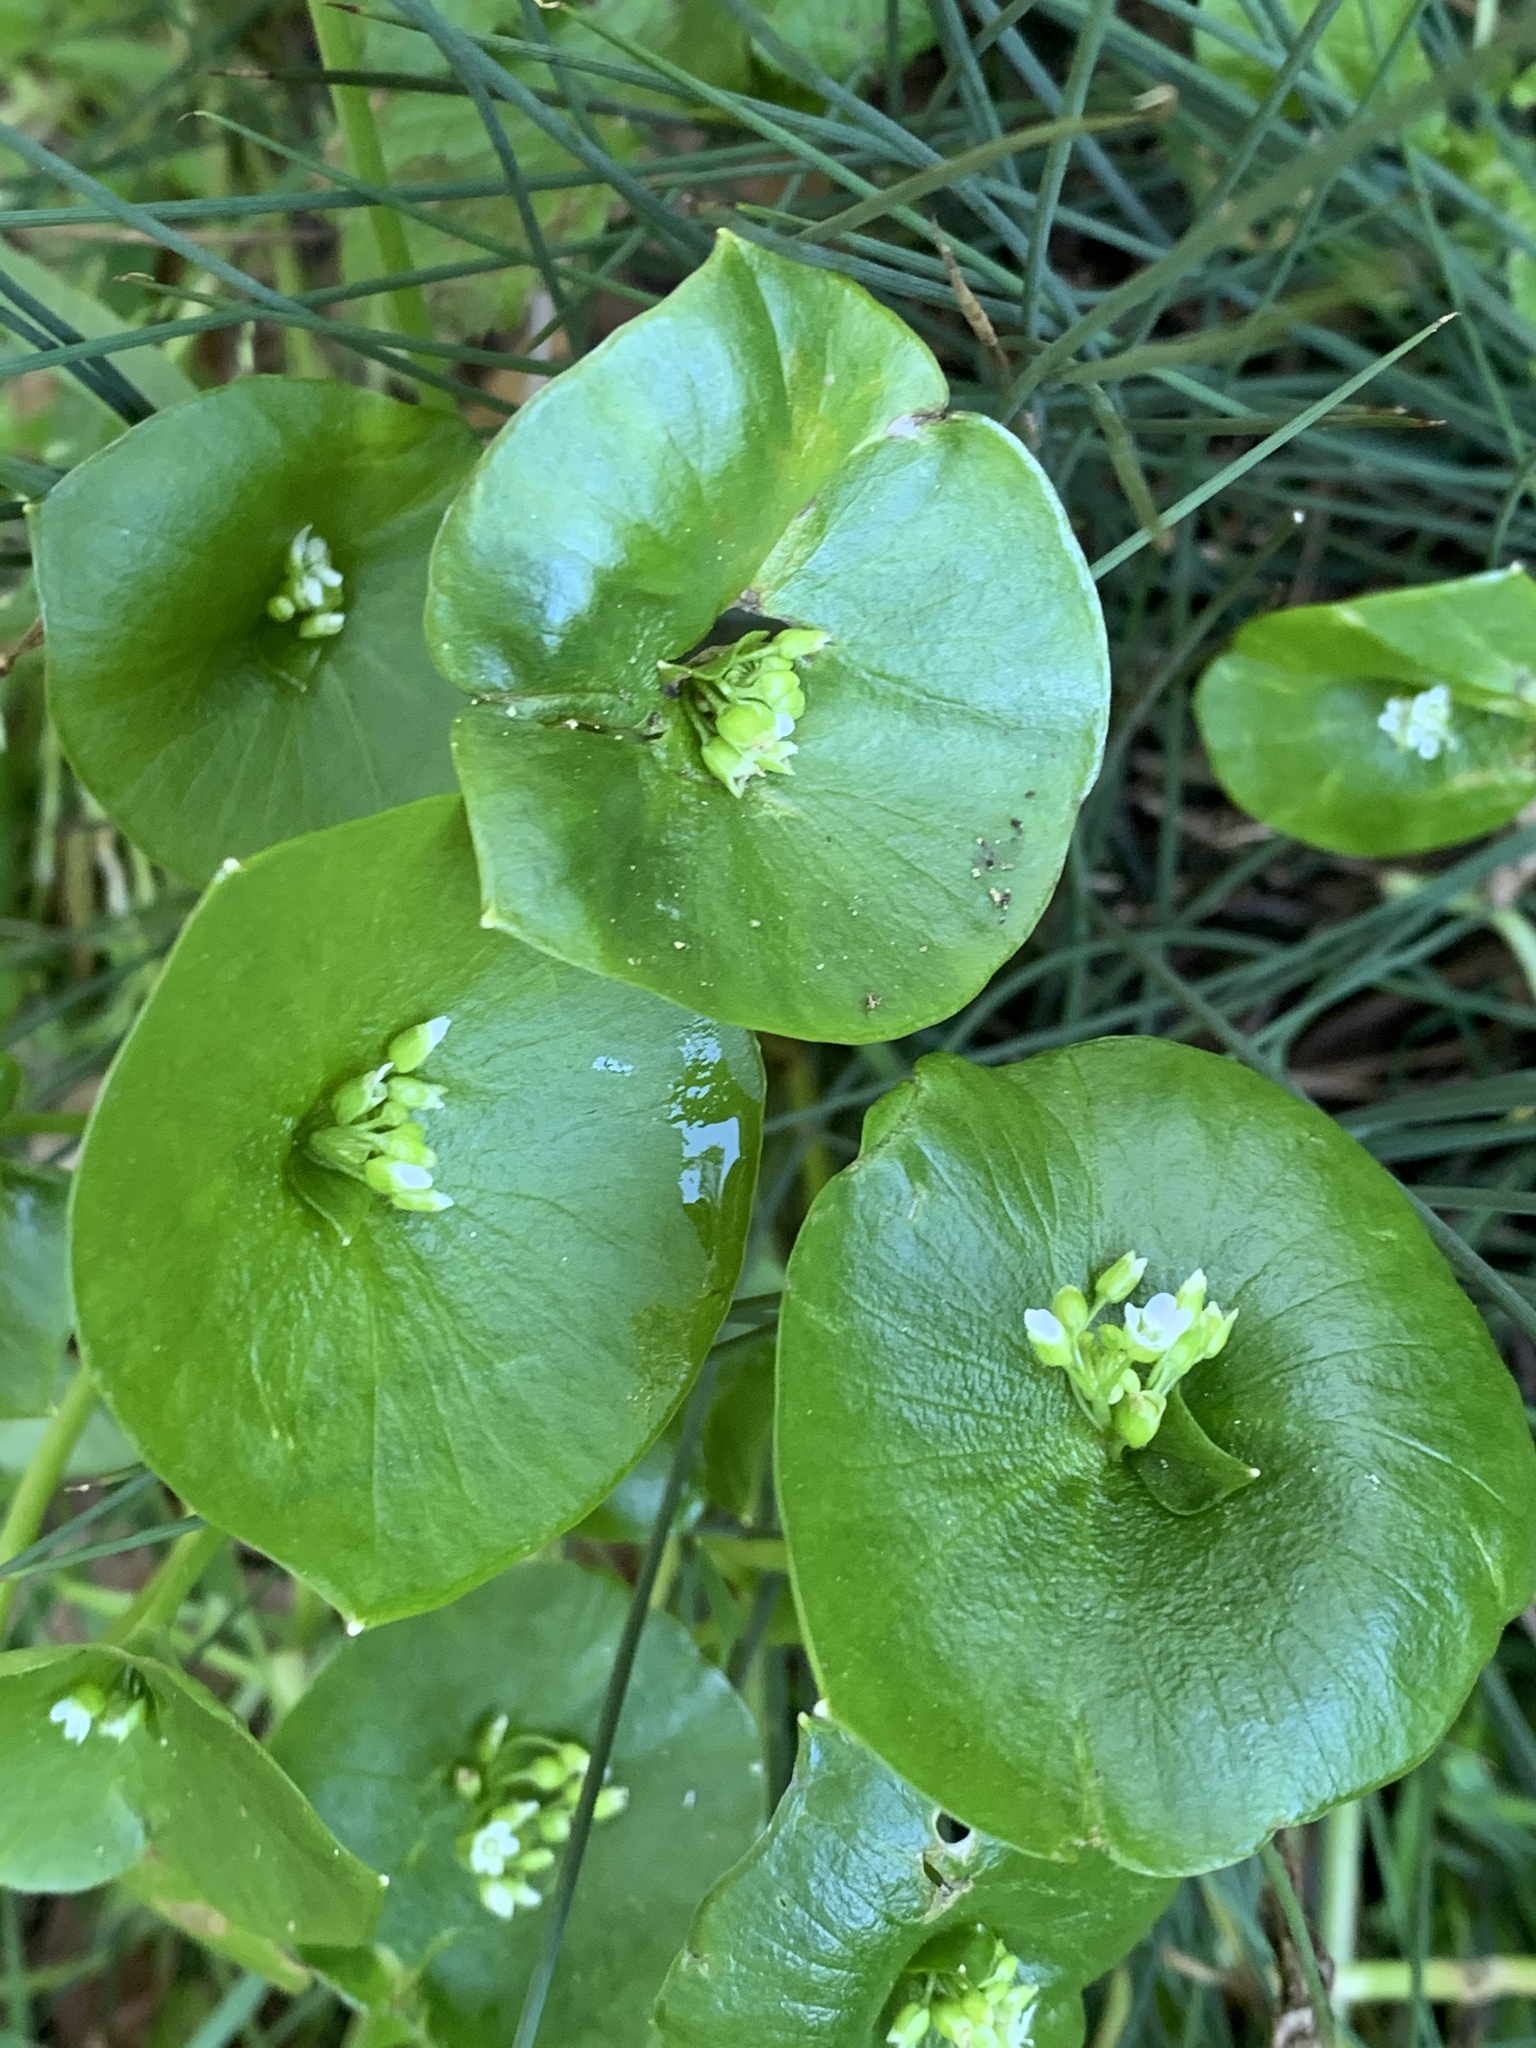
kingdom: Plantae
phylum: Tracheophyta
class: Magnoliopsida
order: Caryophyllales
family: Montiaceae
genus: Claytonia
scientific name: Claytonia perfoliata
